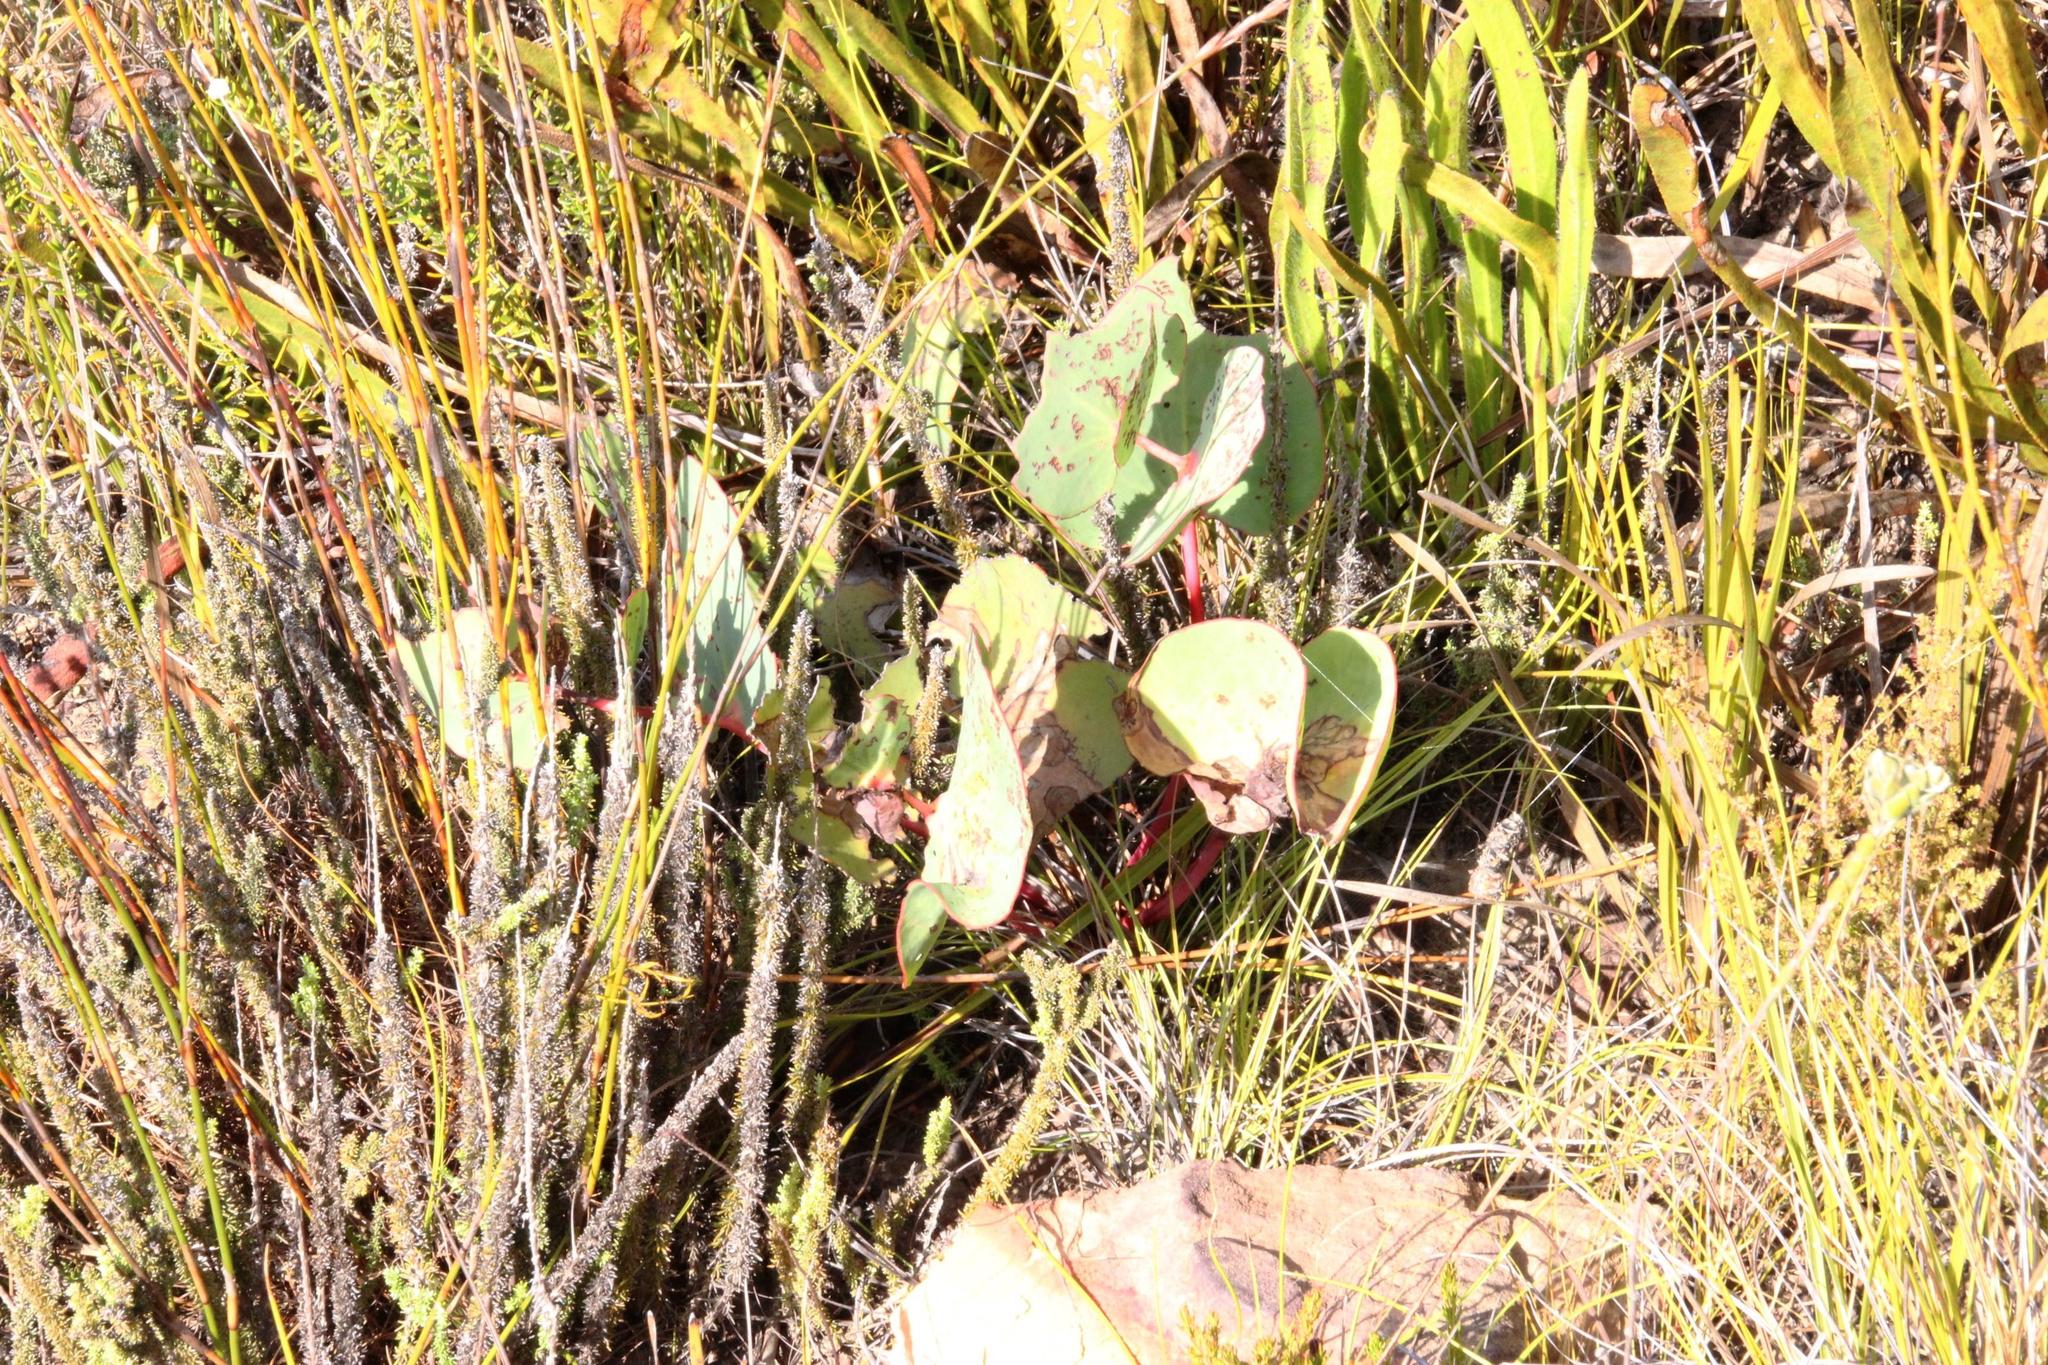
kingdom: Plantae
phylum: Tracheophyta
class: Magnoliopsida
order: Proteales
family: Proteaceae
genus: Protea
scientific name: Protea scabra
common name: Sandpaper-leaf sugarbush
